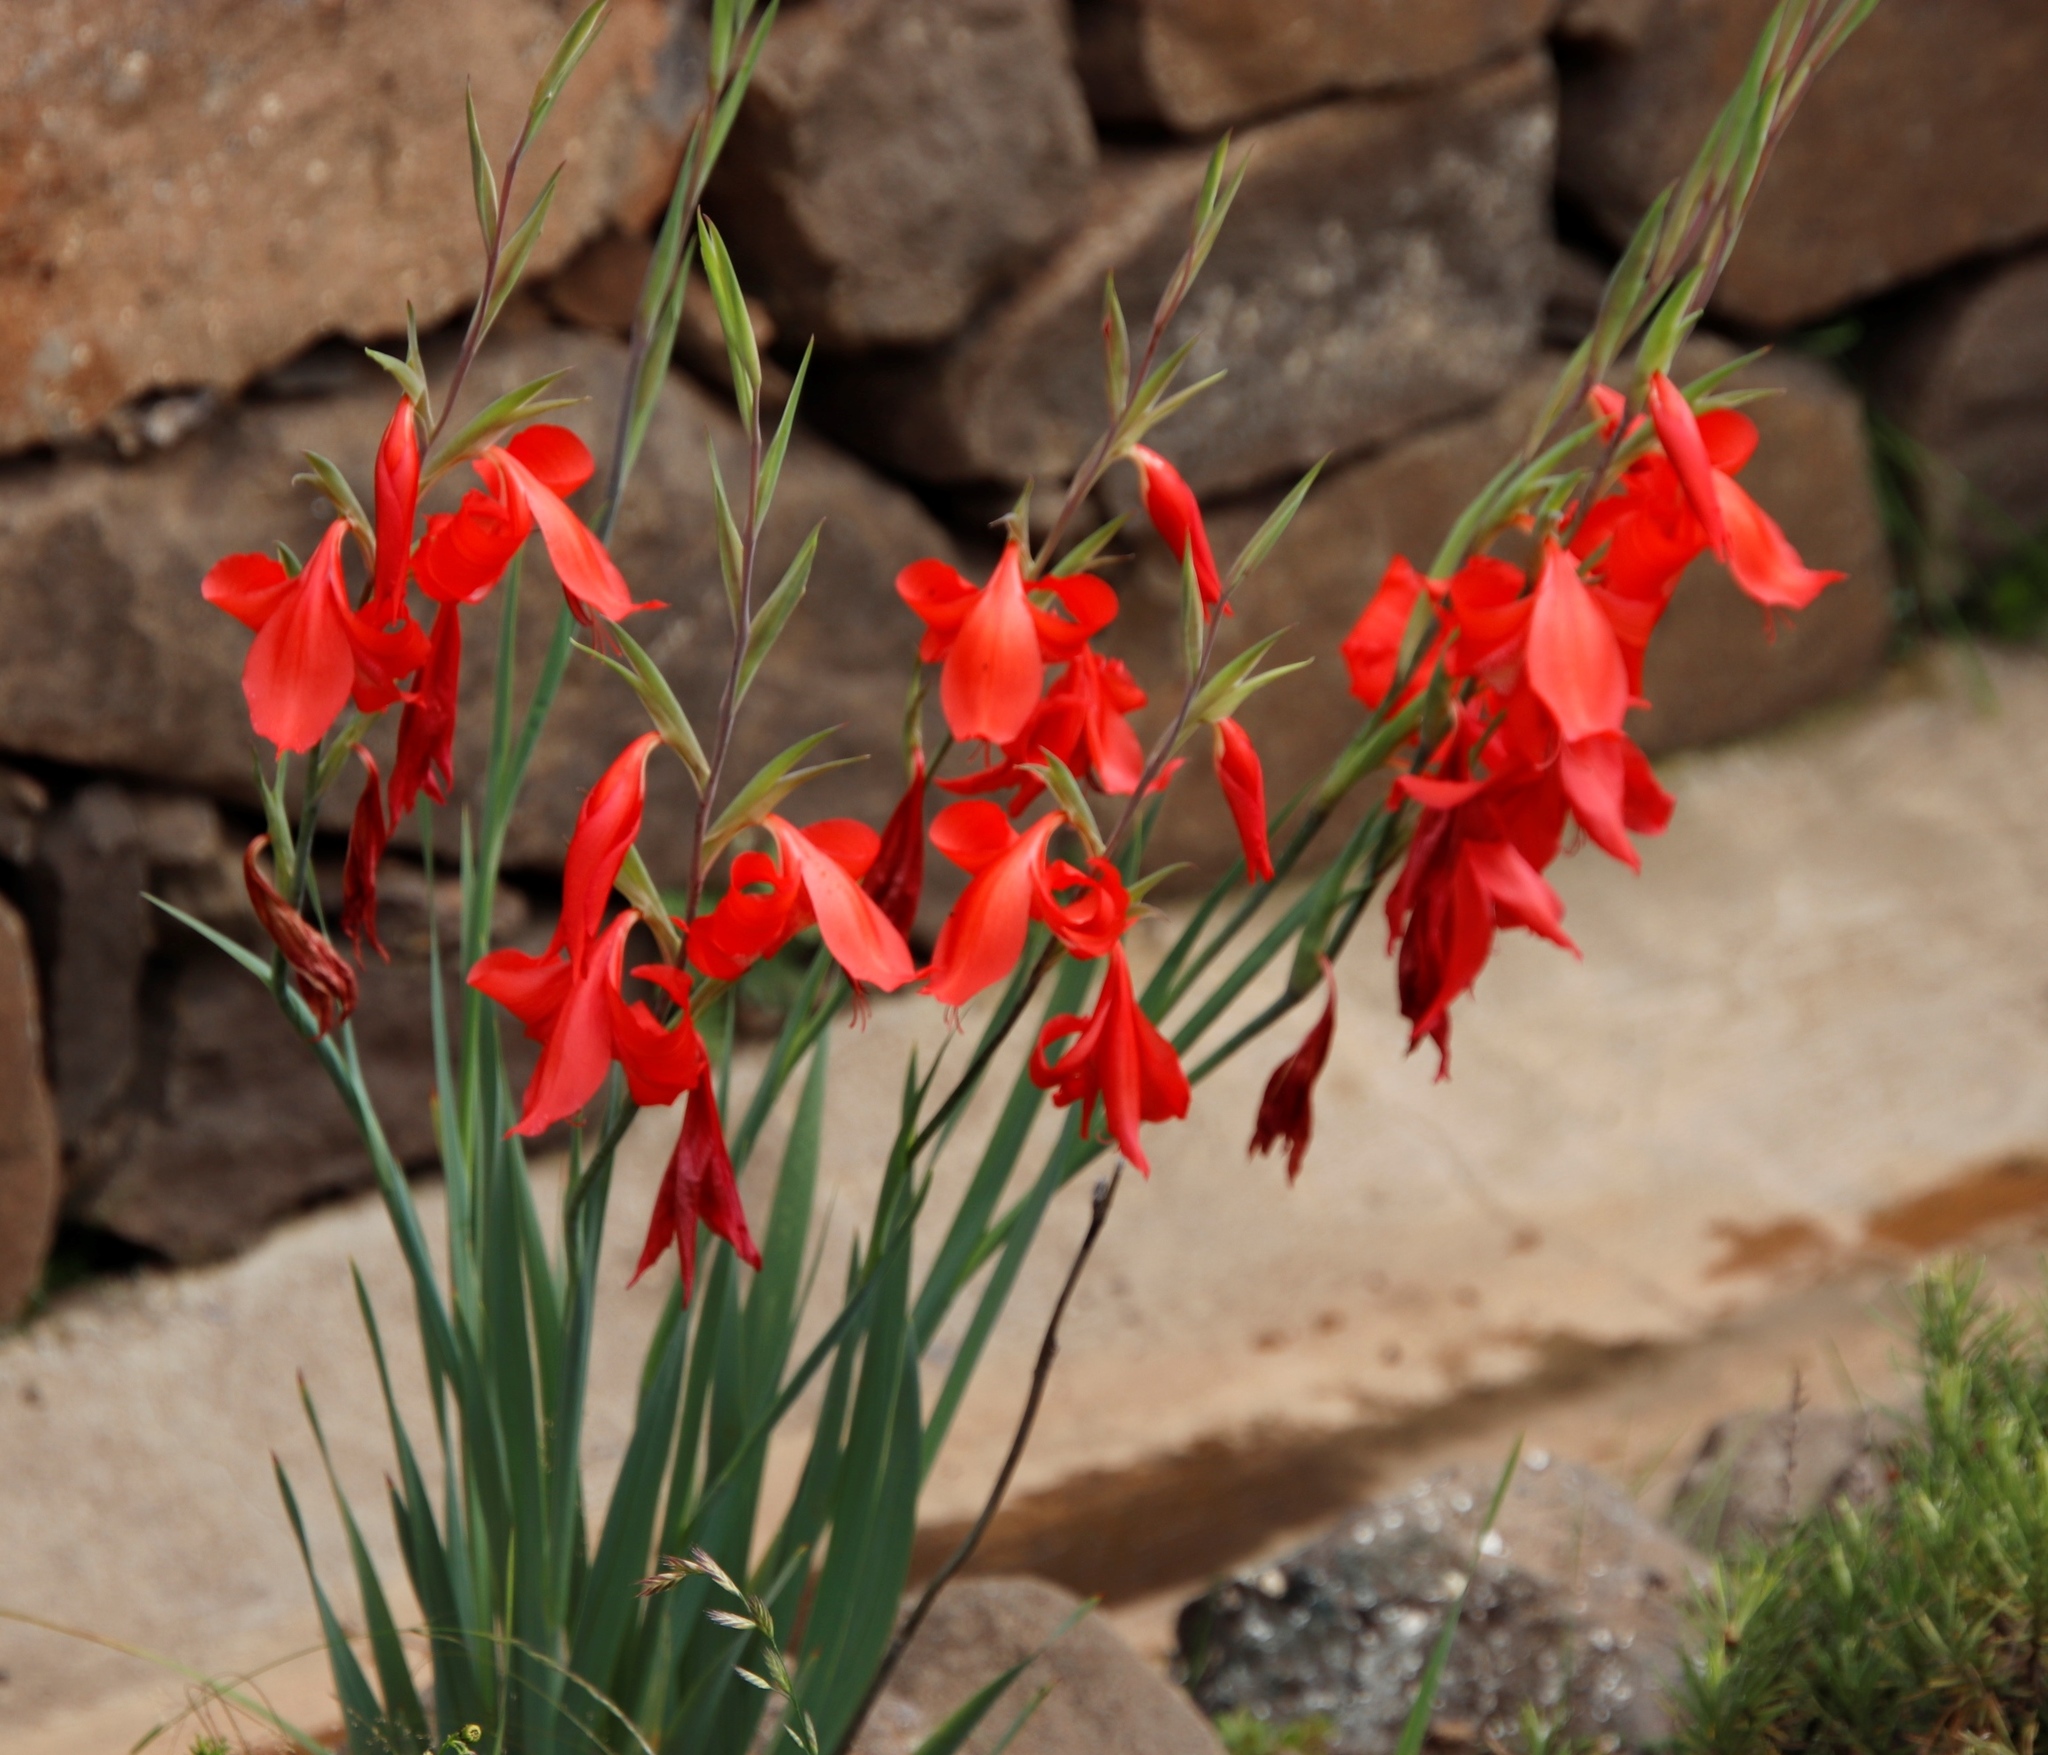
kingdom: Plantae
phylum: Tracheophyta
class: Liliopsida
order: Asparagales
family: Iridaceae
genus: Gladiolus
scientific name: Gladiolus saundersii
